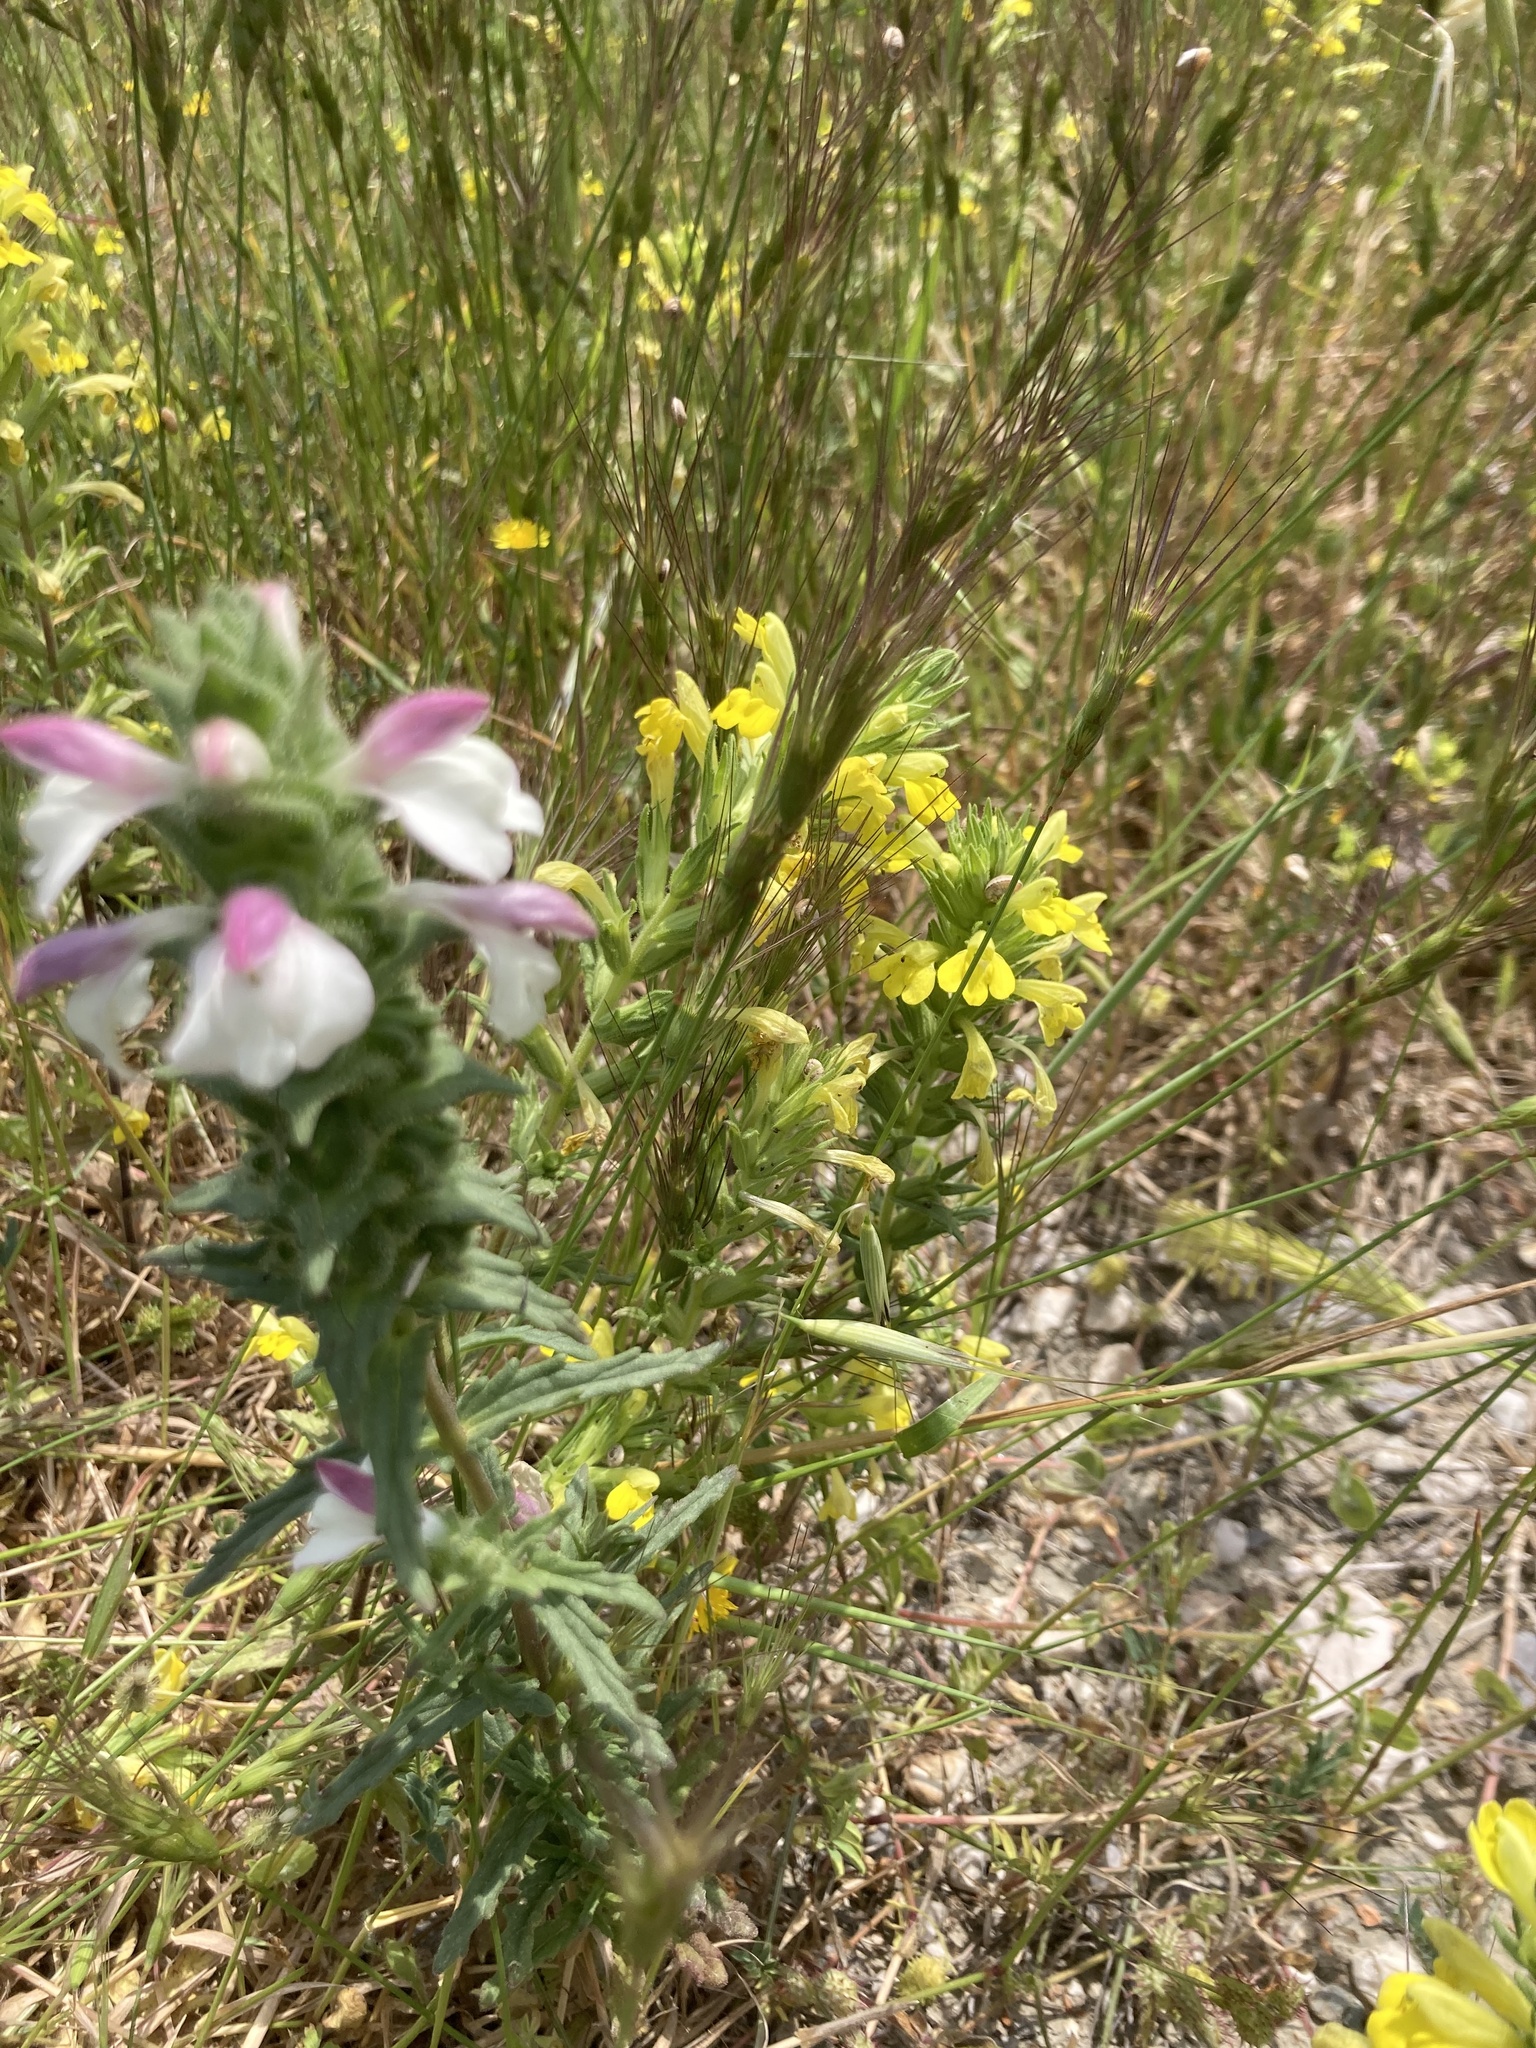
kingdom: Plantae
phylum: Tracheophyta
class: Magnoliopsida
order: Lamiales
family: Orobanchaceae
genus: Bellardia
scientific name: Bellardia viscosa
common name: Sticky parentucellia
